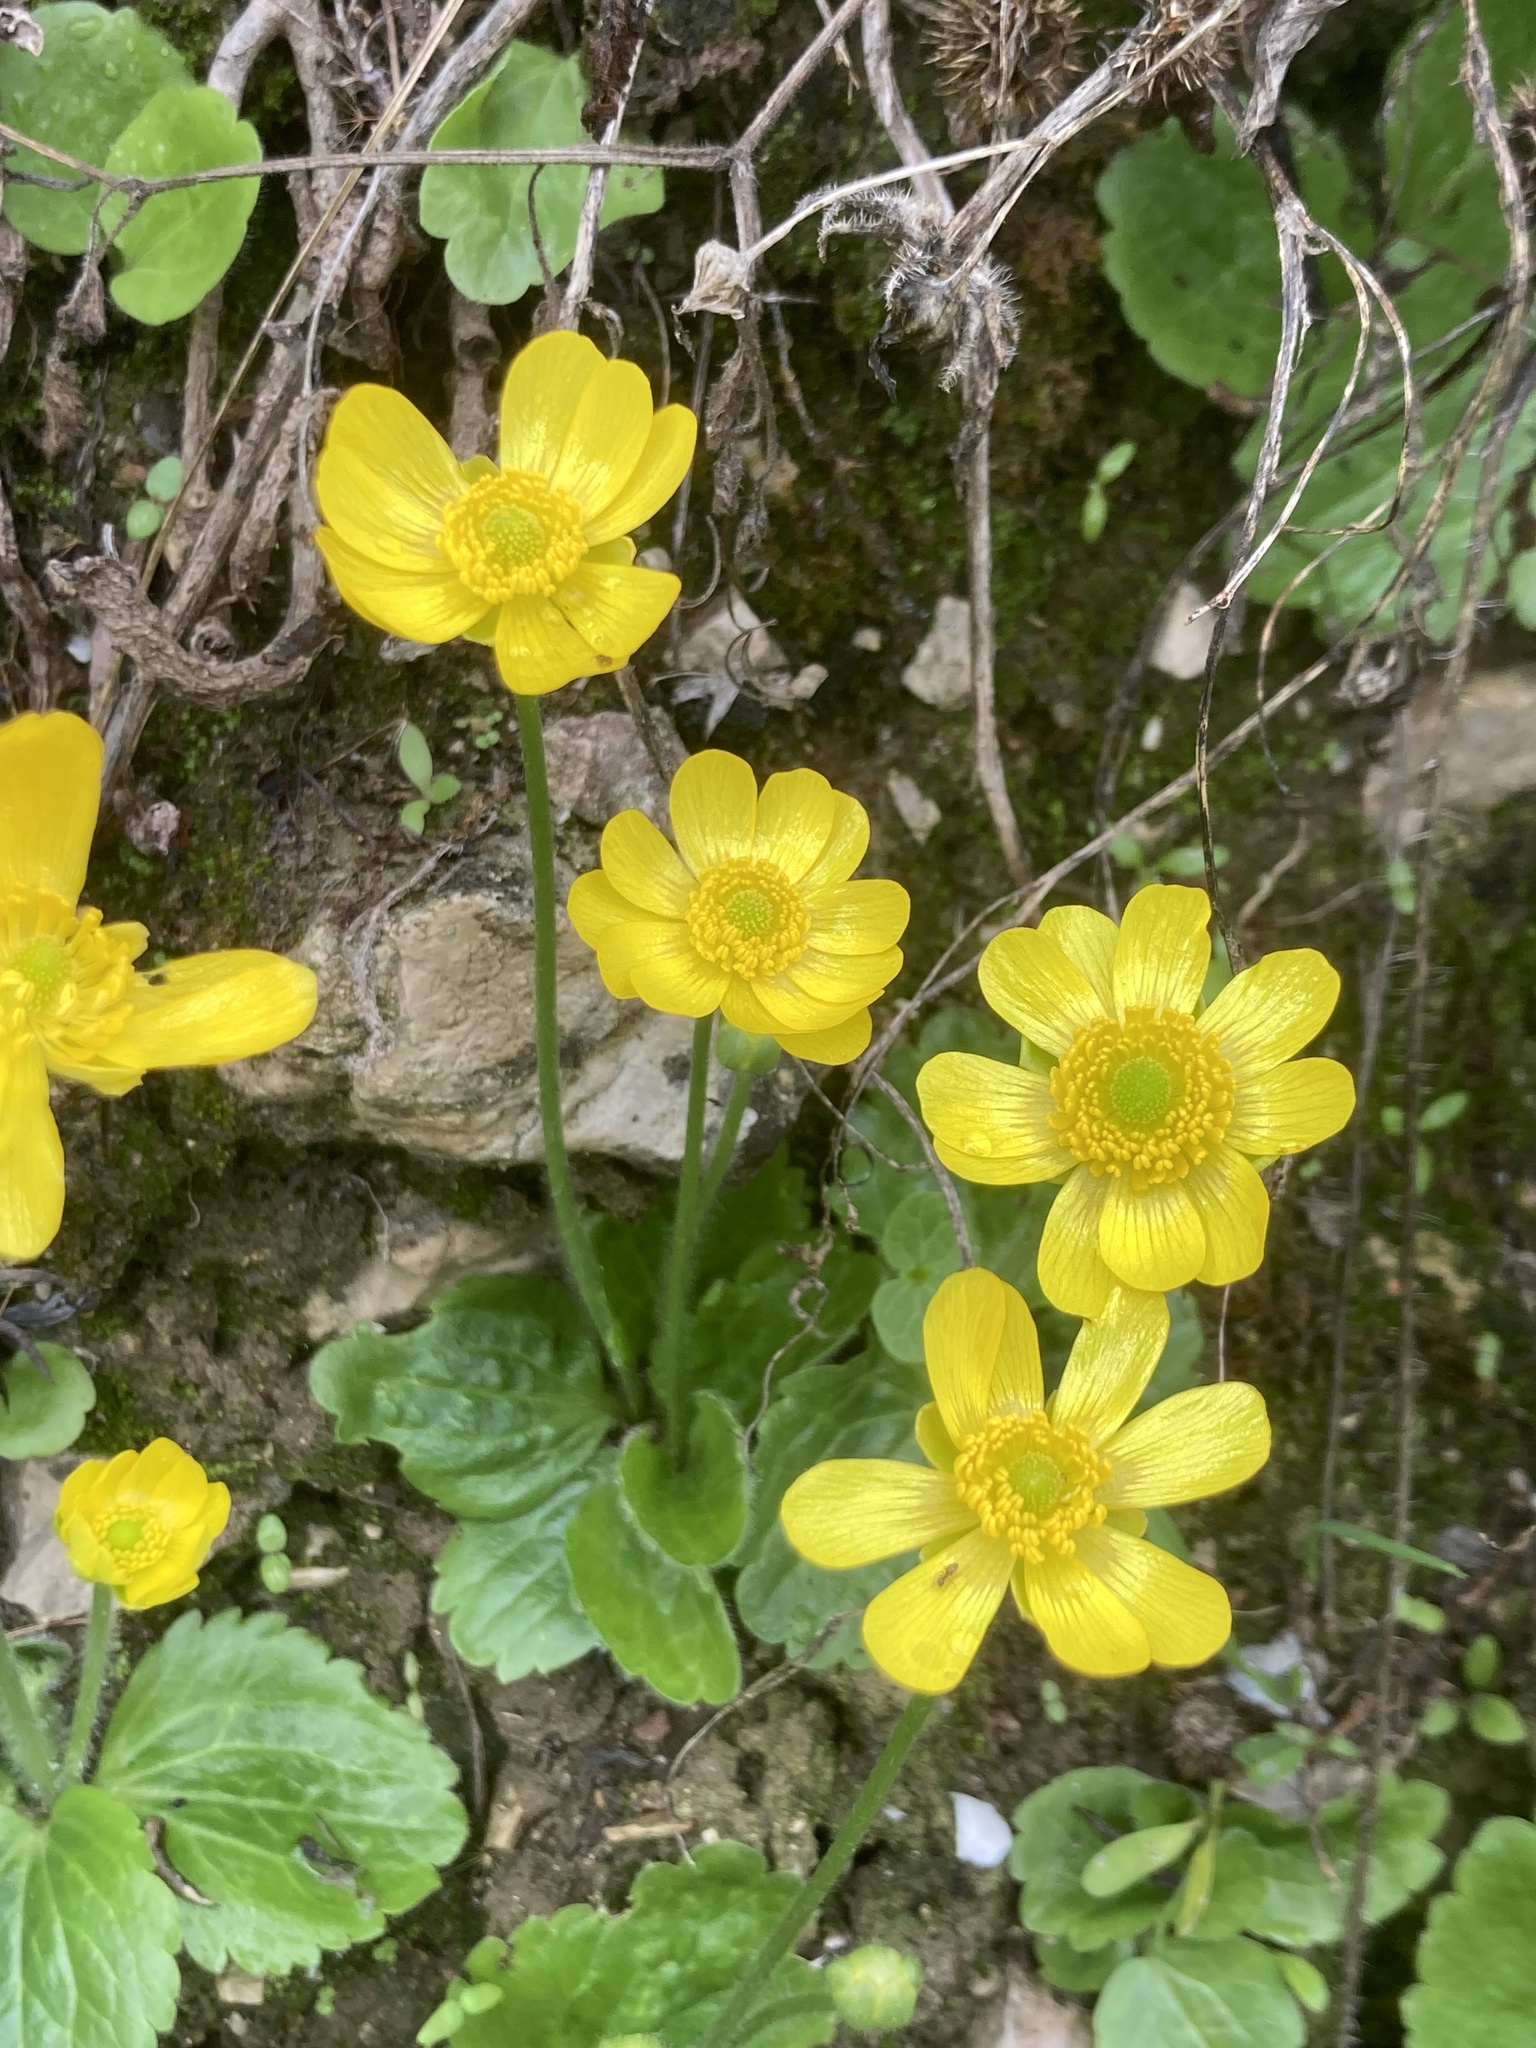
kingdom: Plantae
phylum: Tracheophyta
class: Magnoliopsida
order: Ranunculales
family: Ranunculaceae
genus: Ranunculus
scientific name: Ranunculus bullatus
